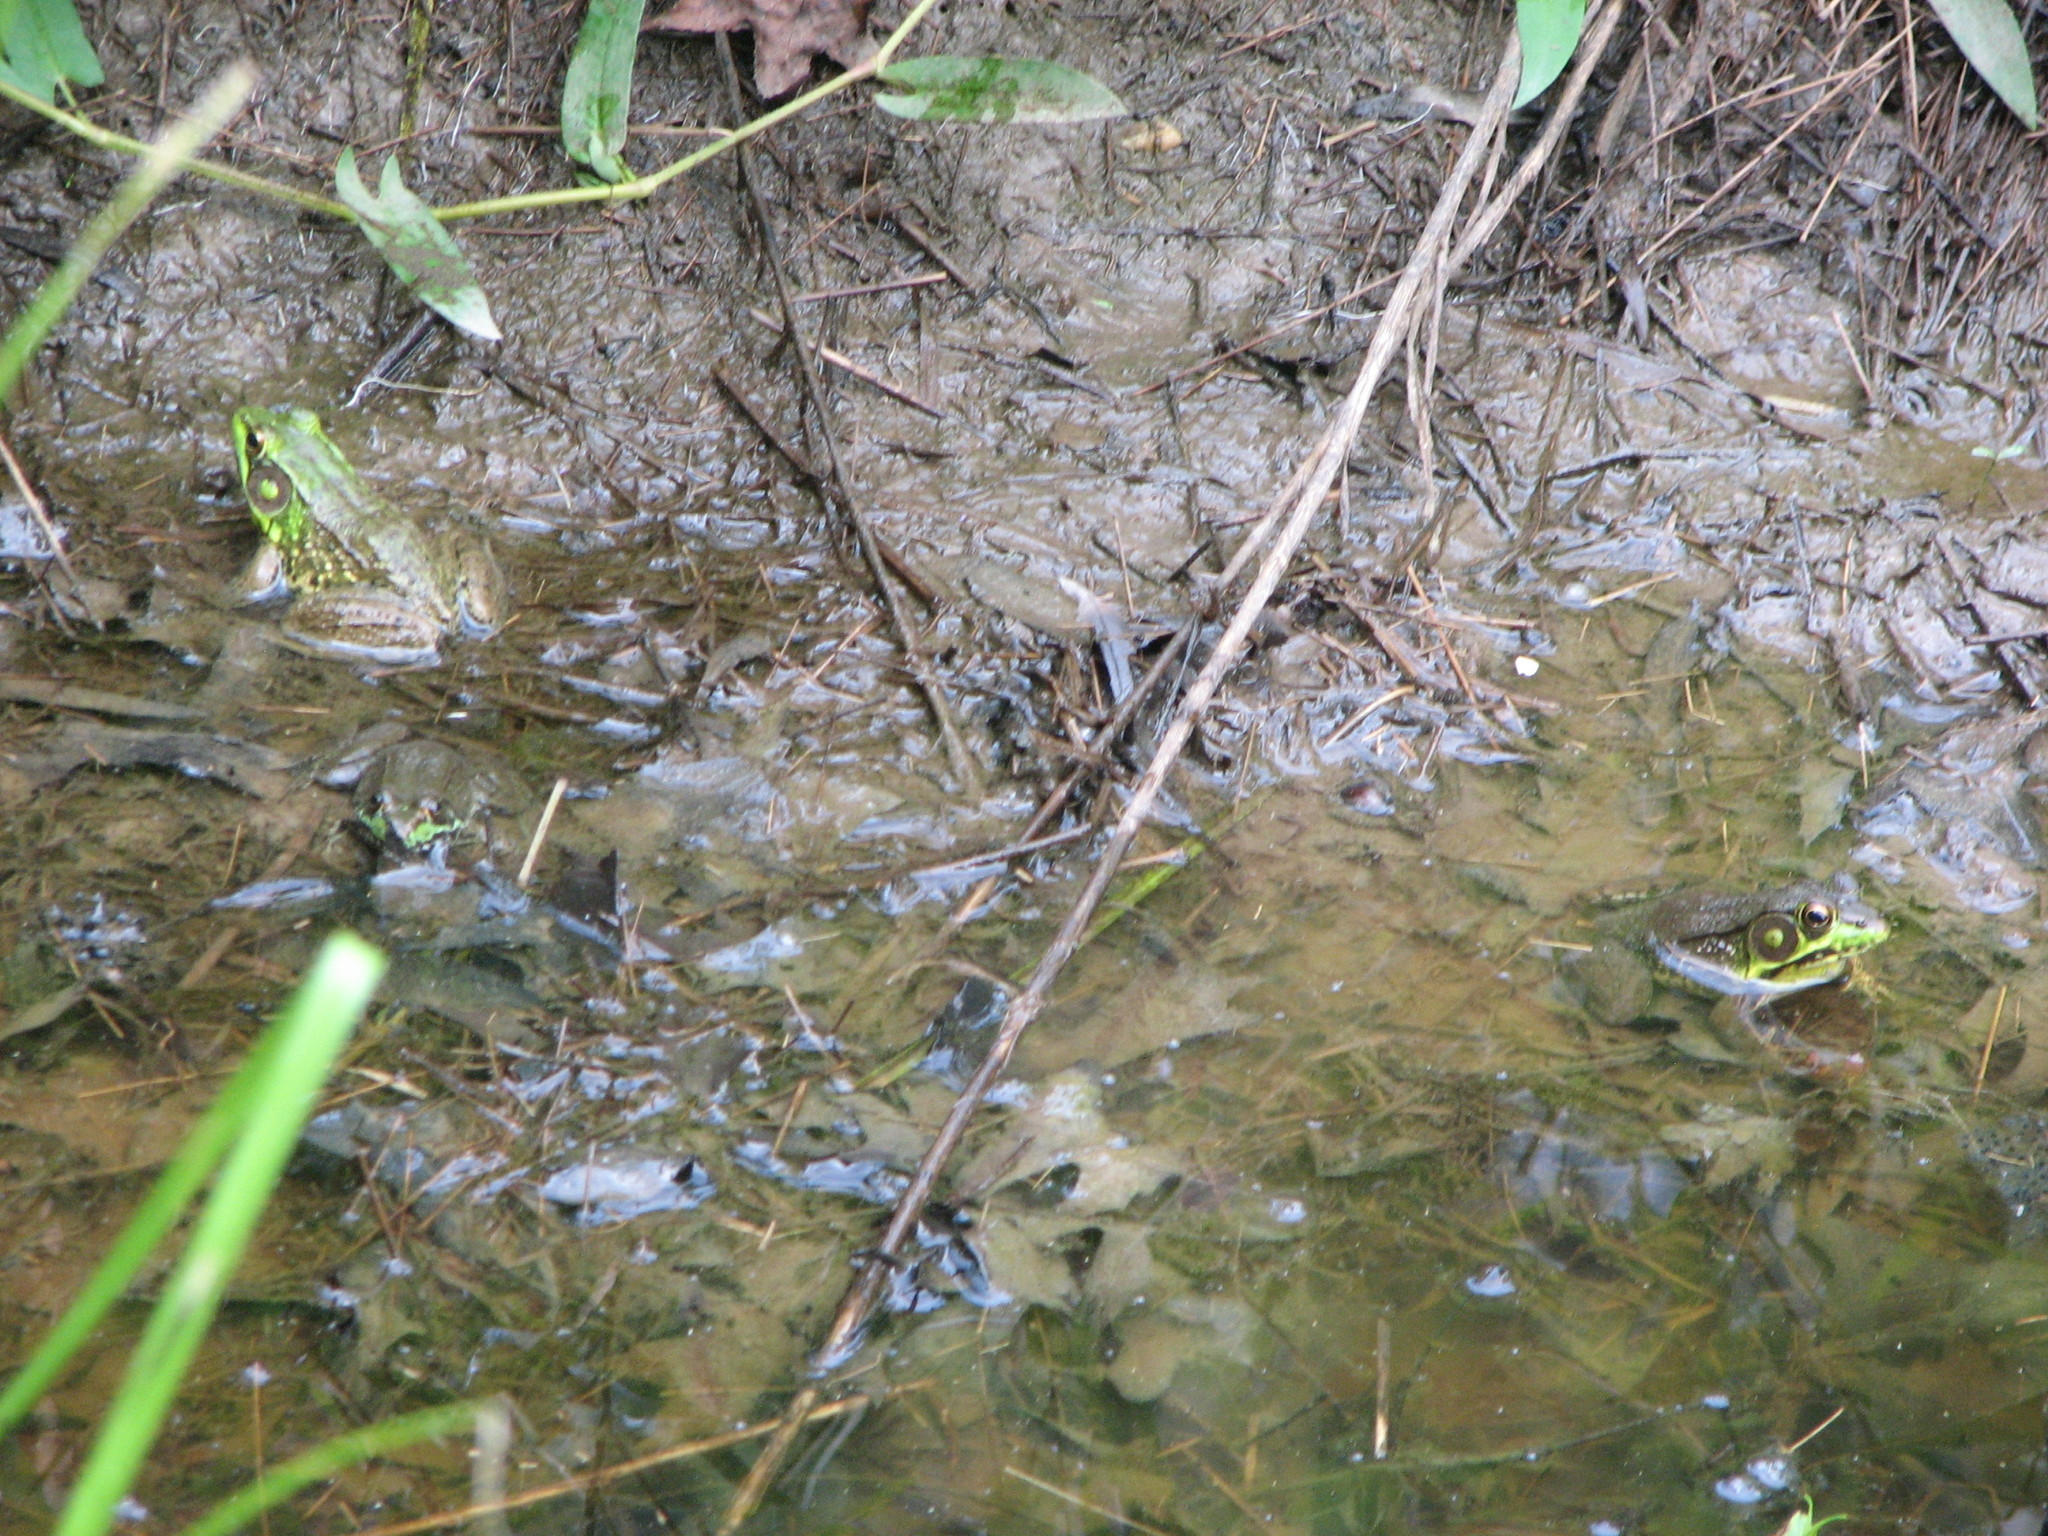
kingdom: Animalia
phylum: Chordata
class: Amphibia
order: Anura
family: Ranidae
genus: Lithobates
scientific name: Lithobates clamitans
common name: Green frog
